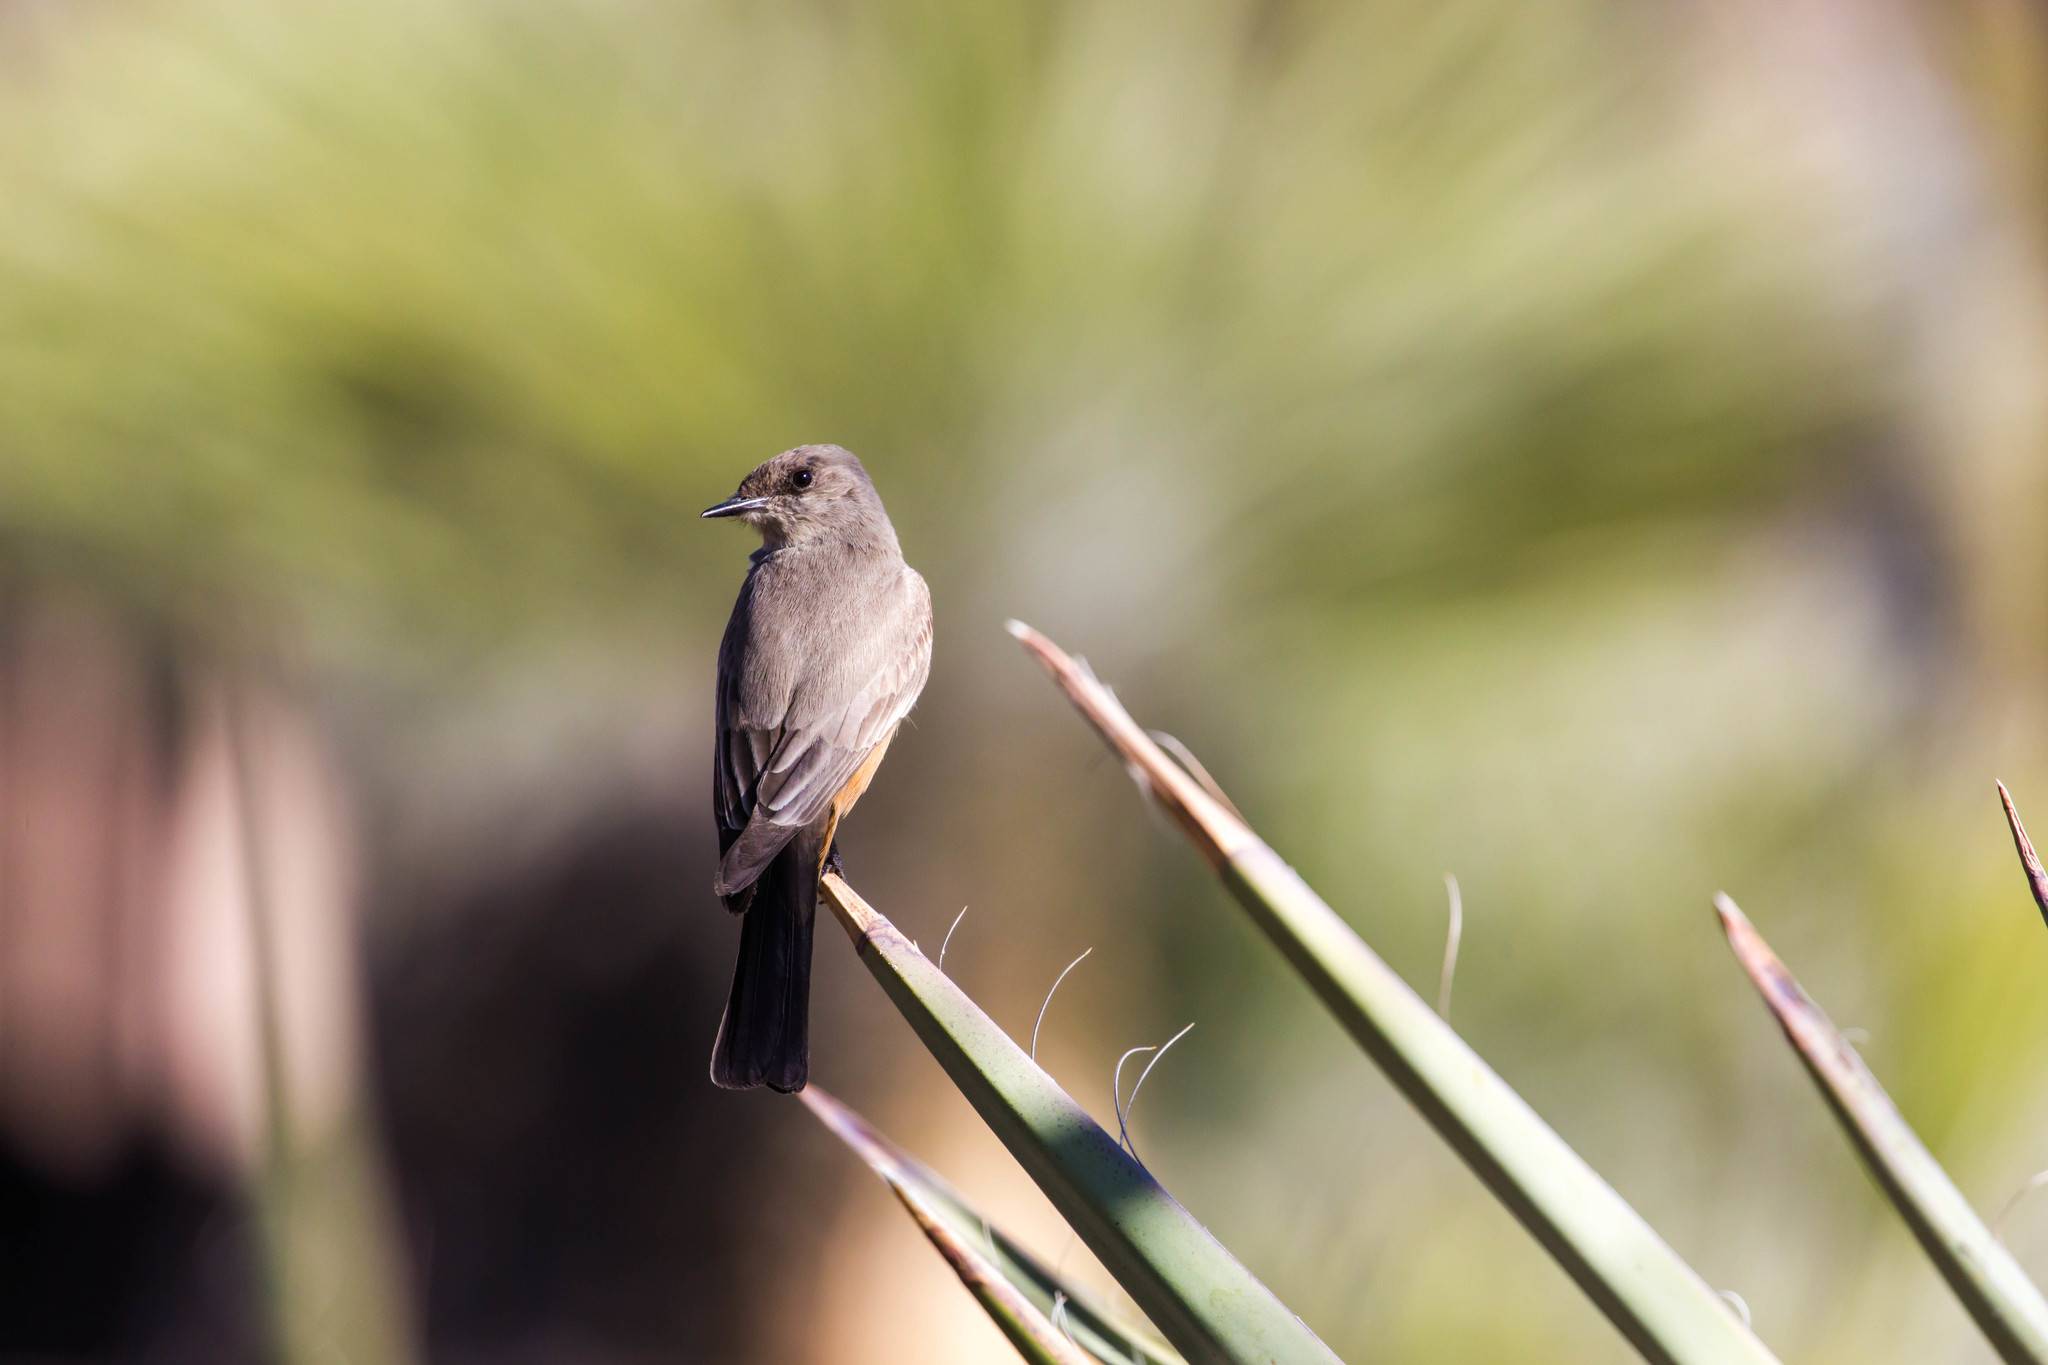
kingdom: Animalia
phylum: Chordata
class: Aves
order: Passeriformes
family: Tyrannidae
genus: Sayornis
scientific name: Sayornis saya
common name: Say's phoebe
